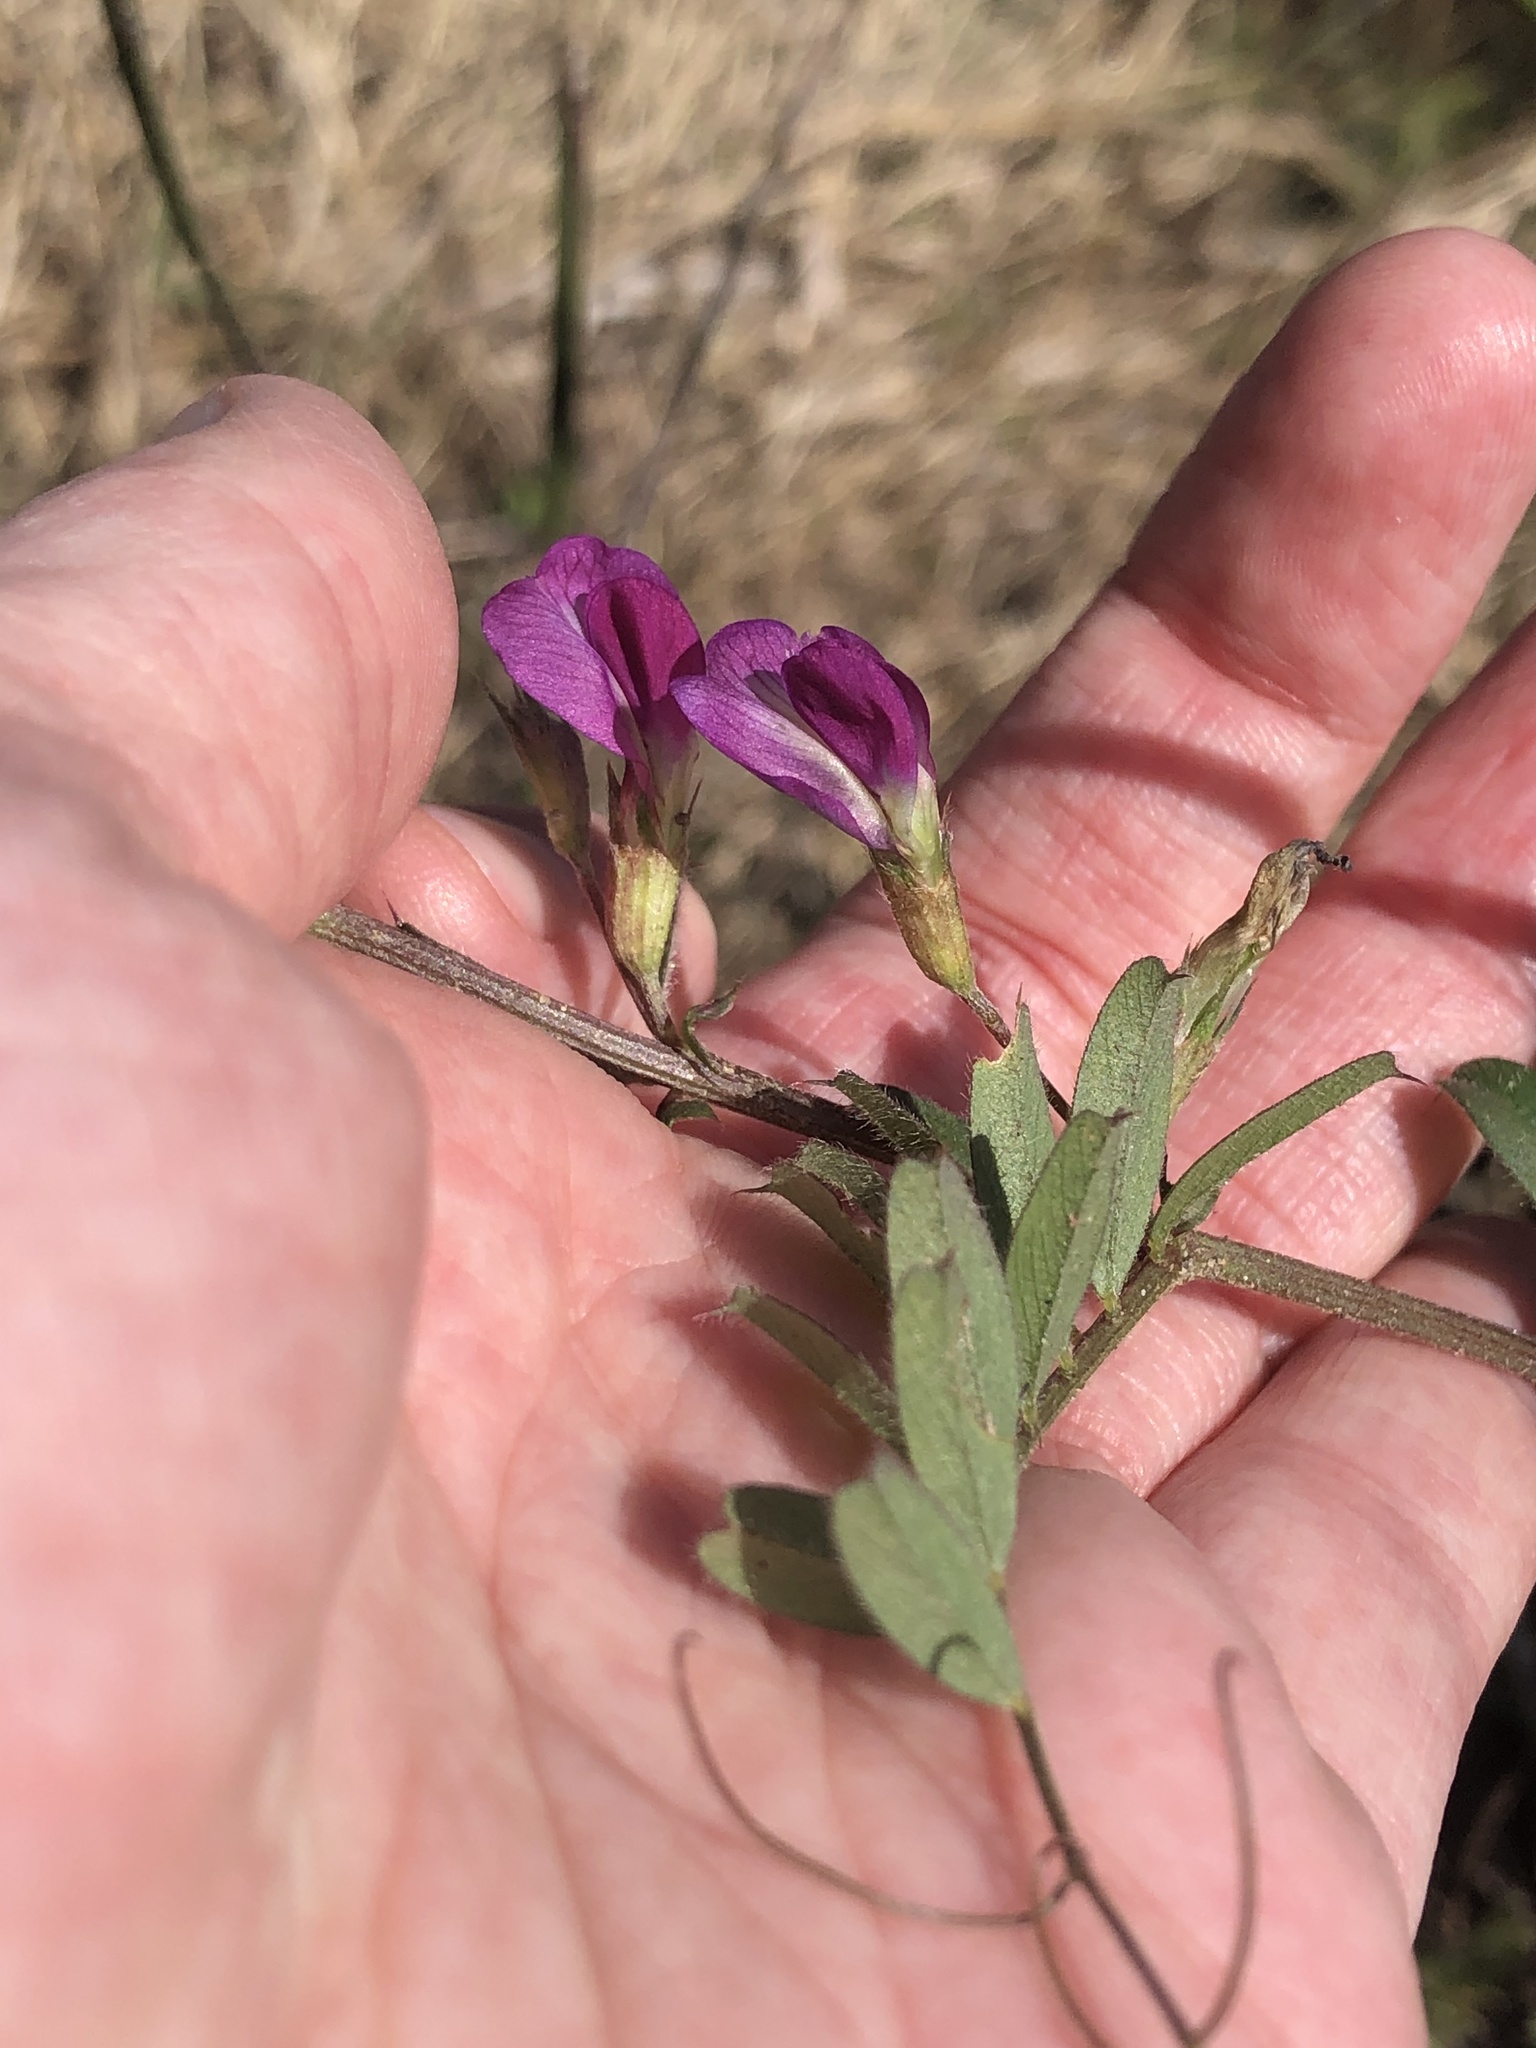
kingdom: Plantae
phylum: Tracheophyta
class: Magnoliopsida
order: Fabales
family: Fabaceae
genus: Vicia
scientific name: Vicia sativa
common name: Garden vetch
